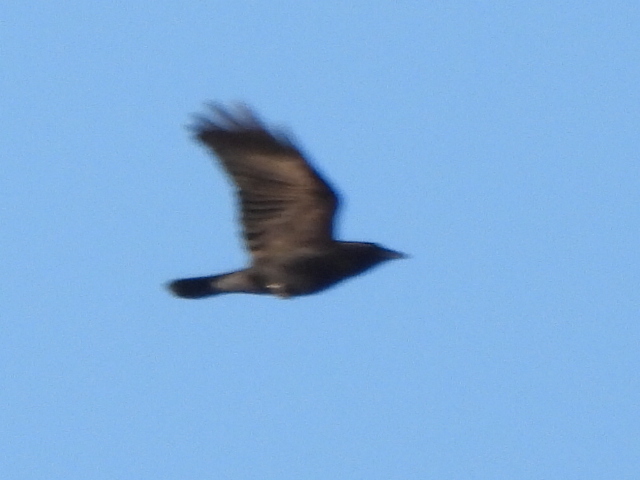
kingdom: Animalia
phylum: Chordata
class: Aves
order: Passeriformes
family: Corvidae
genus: Corvus
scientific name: Corvus brachyrhynchos
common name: American crow
